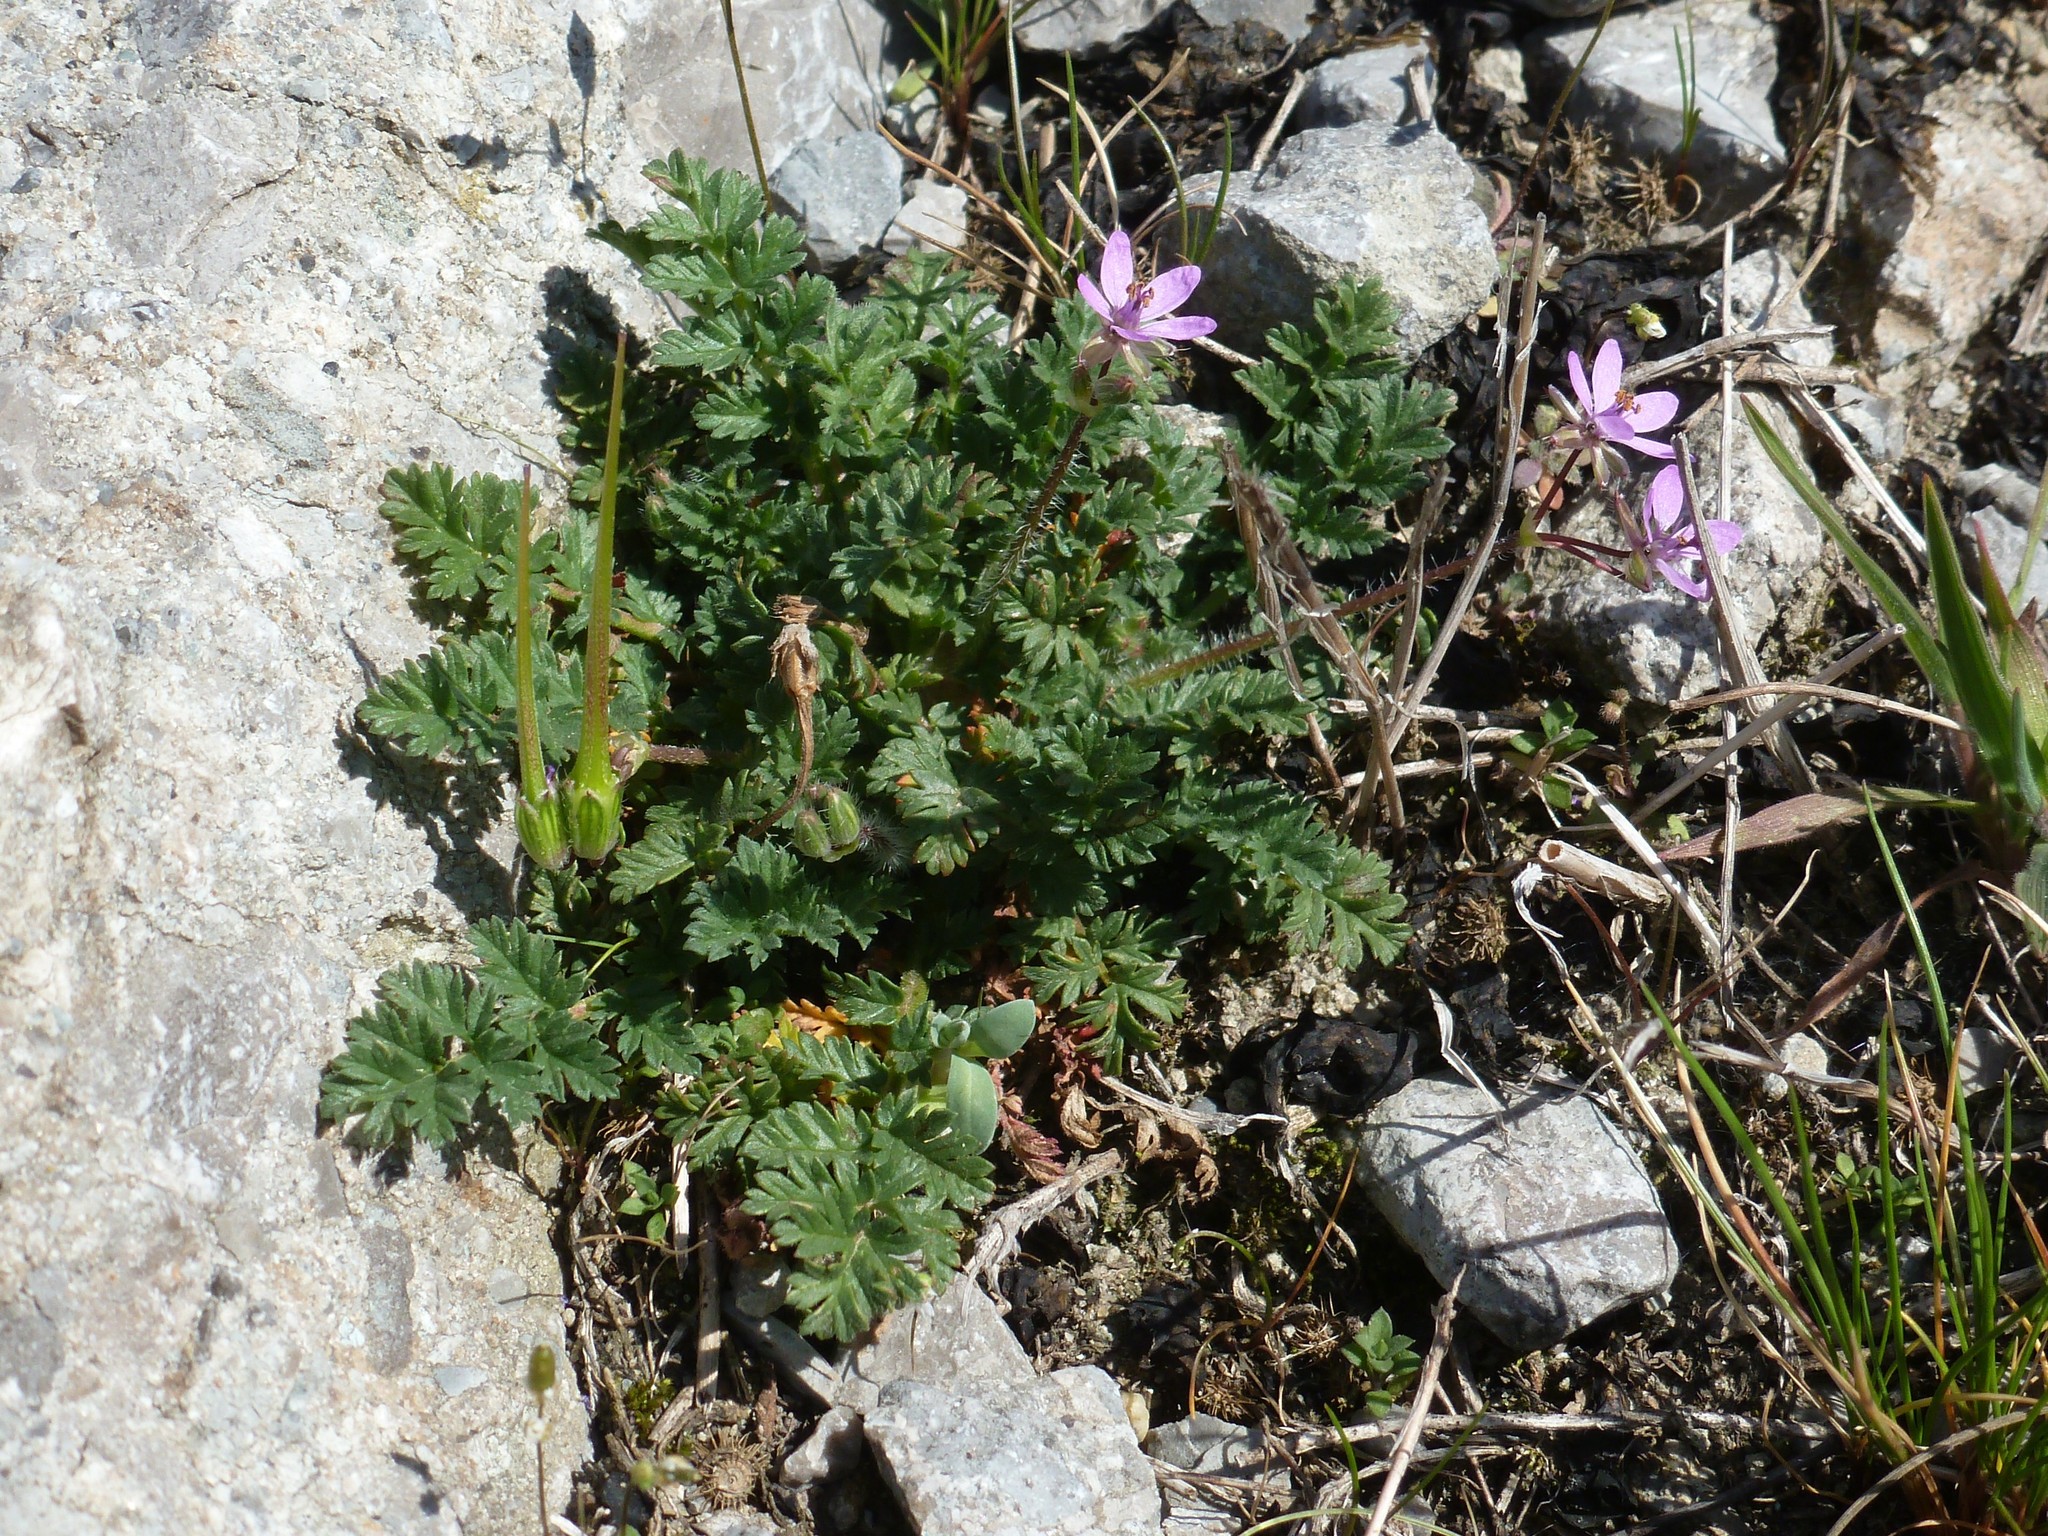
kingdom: Plantae
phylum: Tracheophyta
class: Magnoliopsida
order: Geraniales
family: Geraniaceae
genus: Erodium
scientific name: Erodium cicutarium
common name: Common stork's-bill
